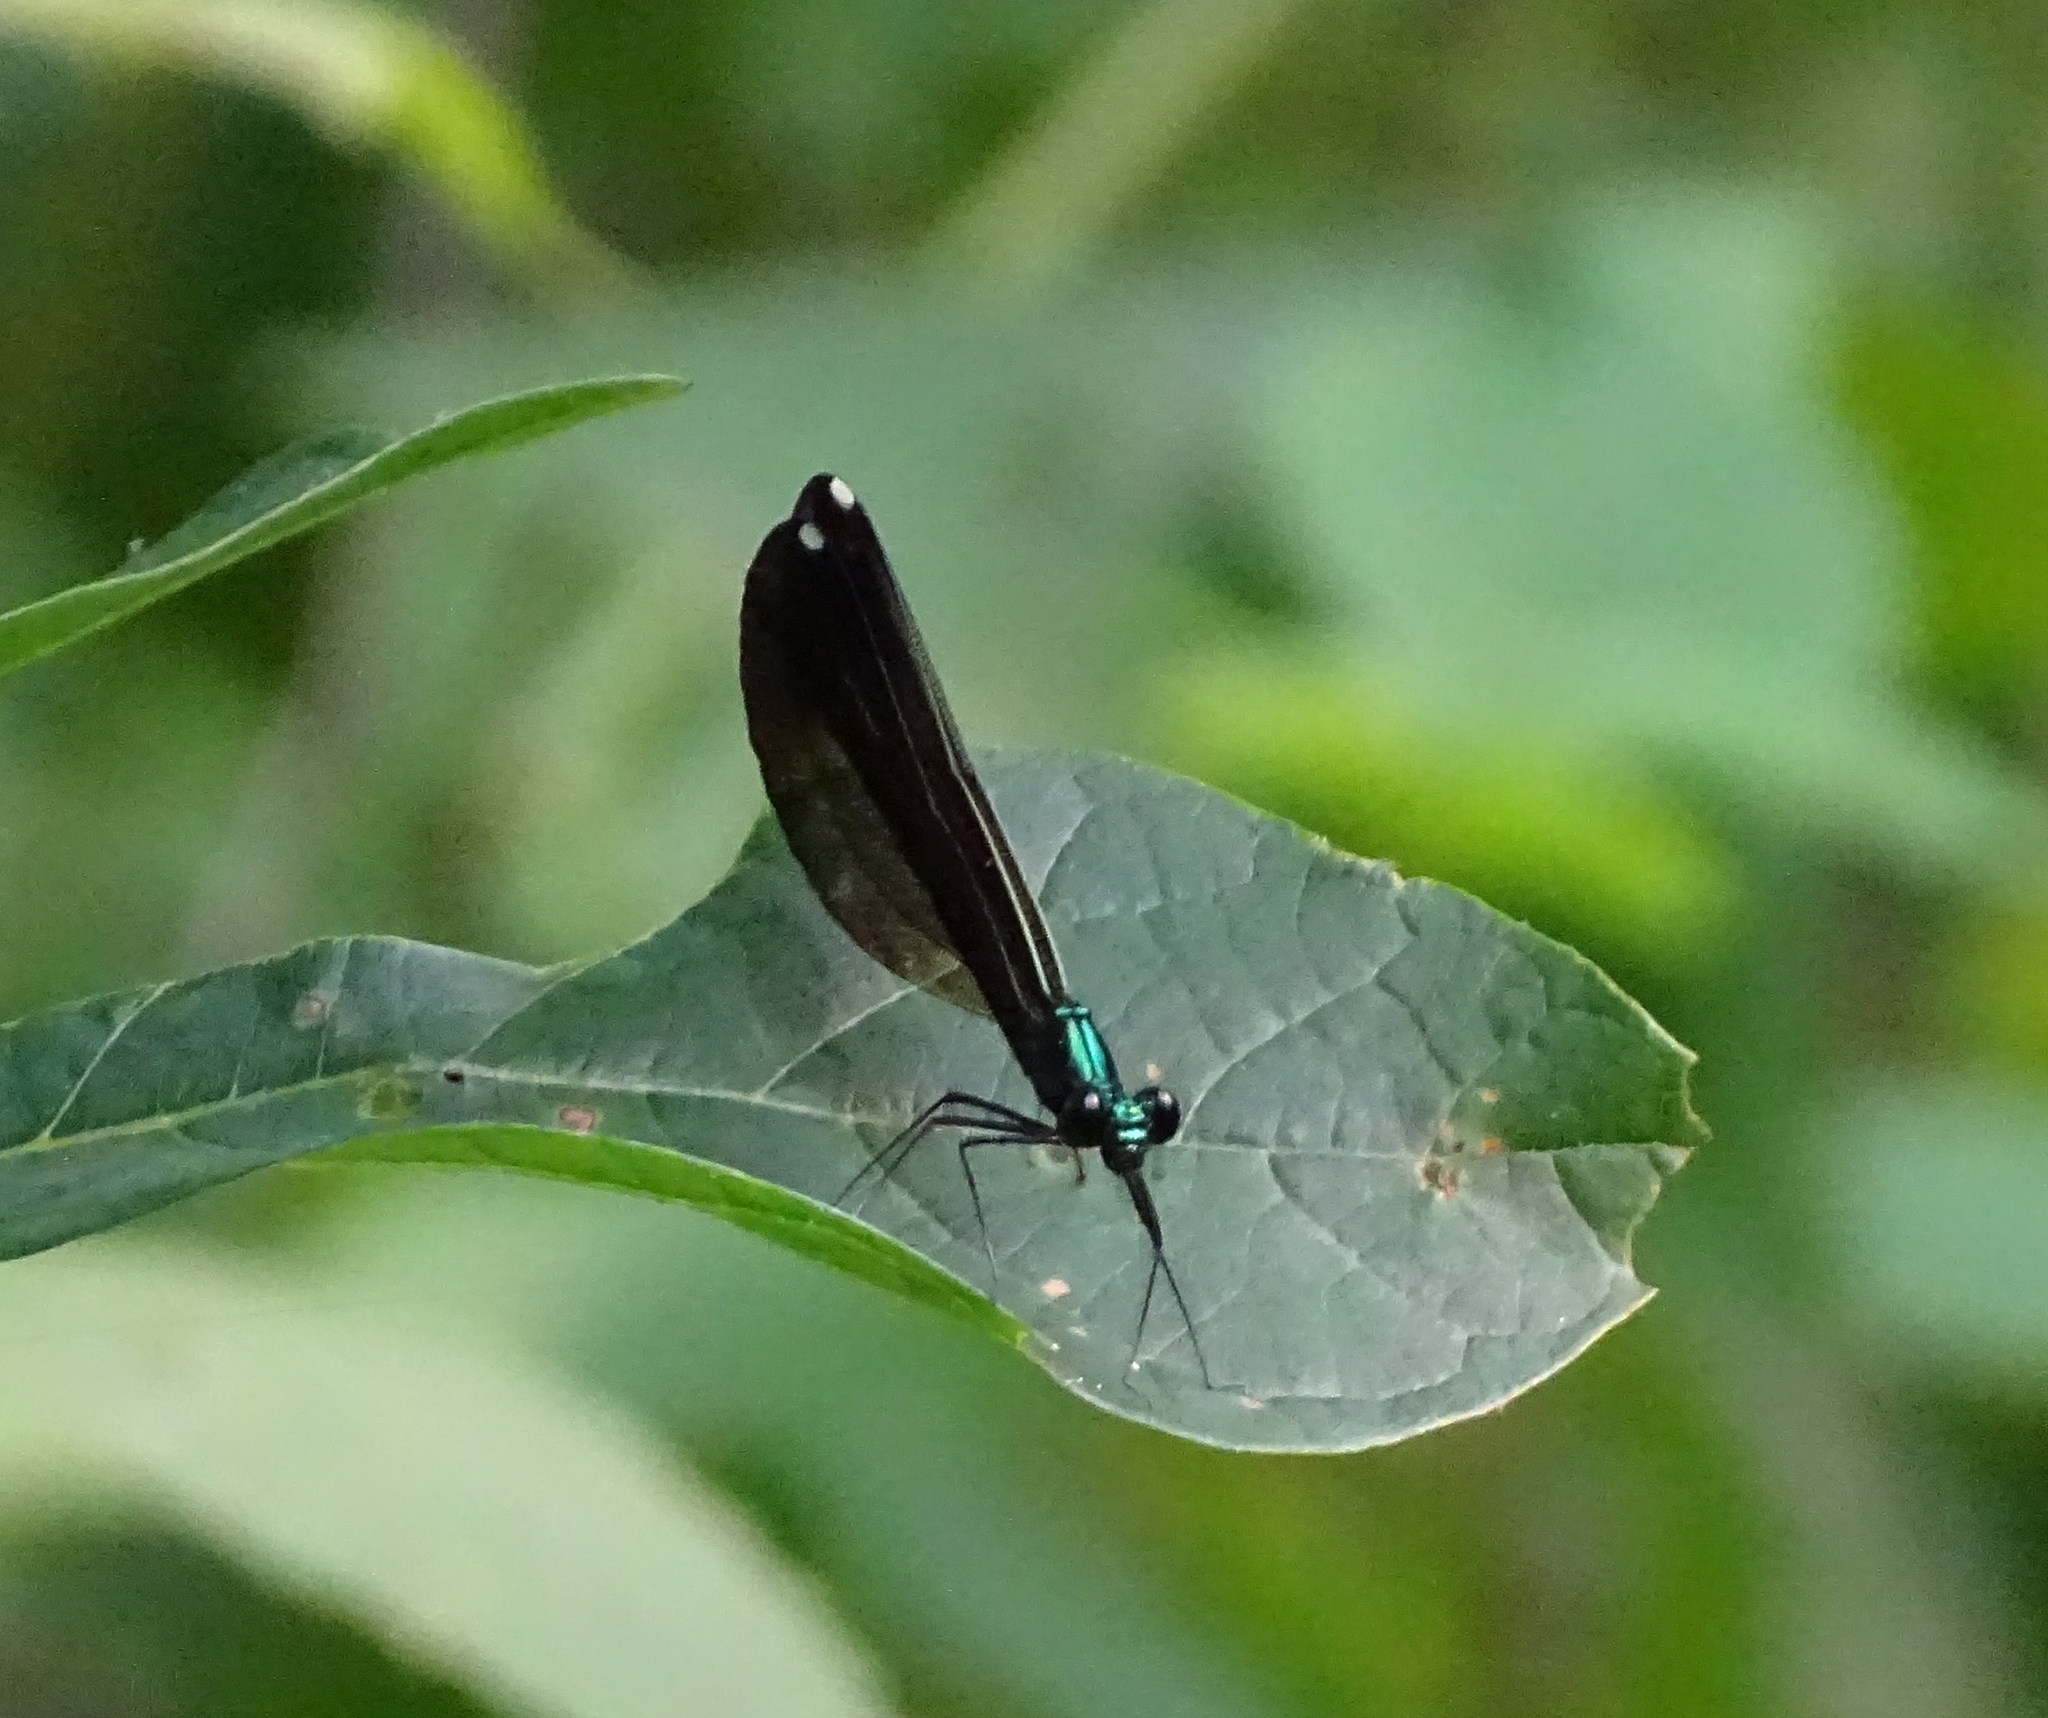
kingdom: Animalia
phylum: Arthropoda
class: Insecta
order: Odonata
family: Calopterygidae
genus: Calopteryx
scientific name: Calopteryx maculata
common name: Ebony jewelwing
